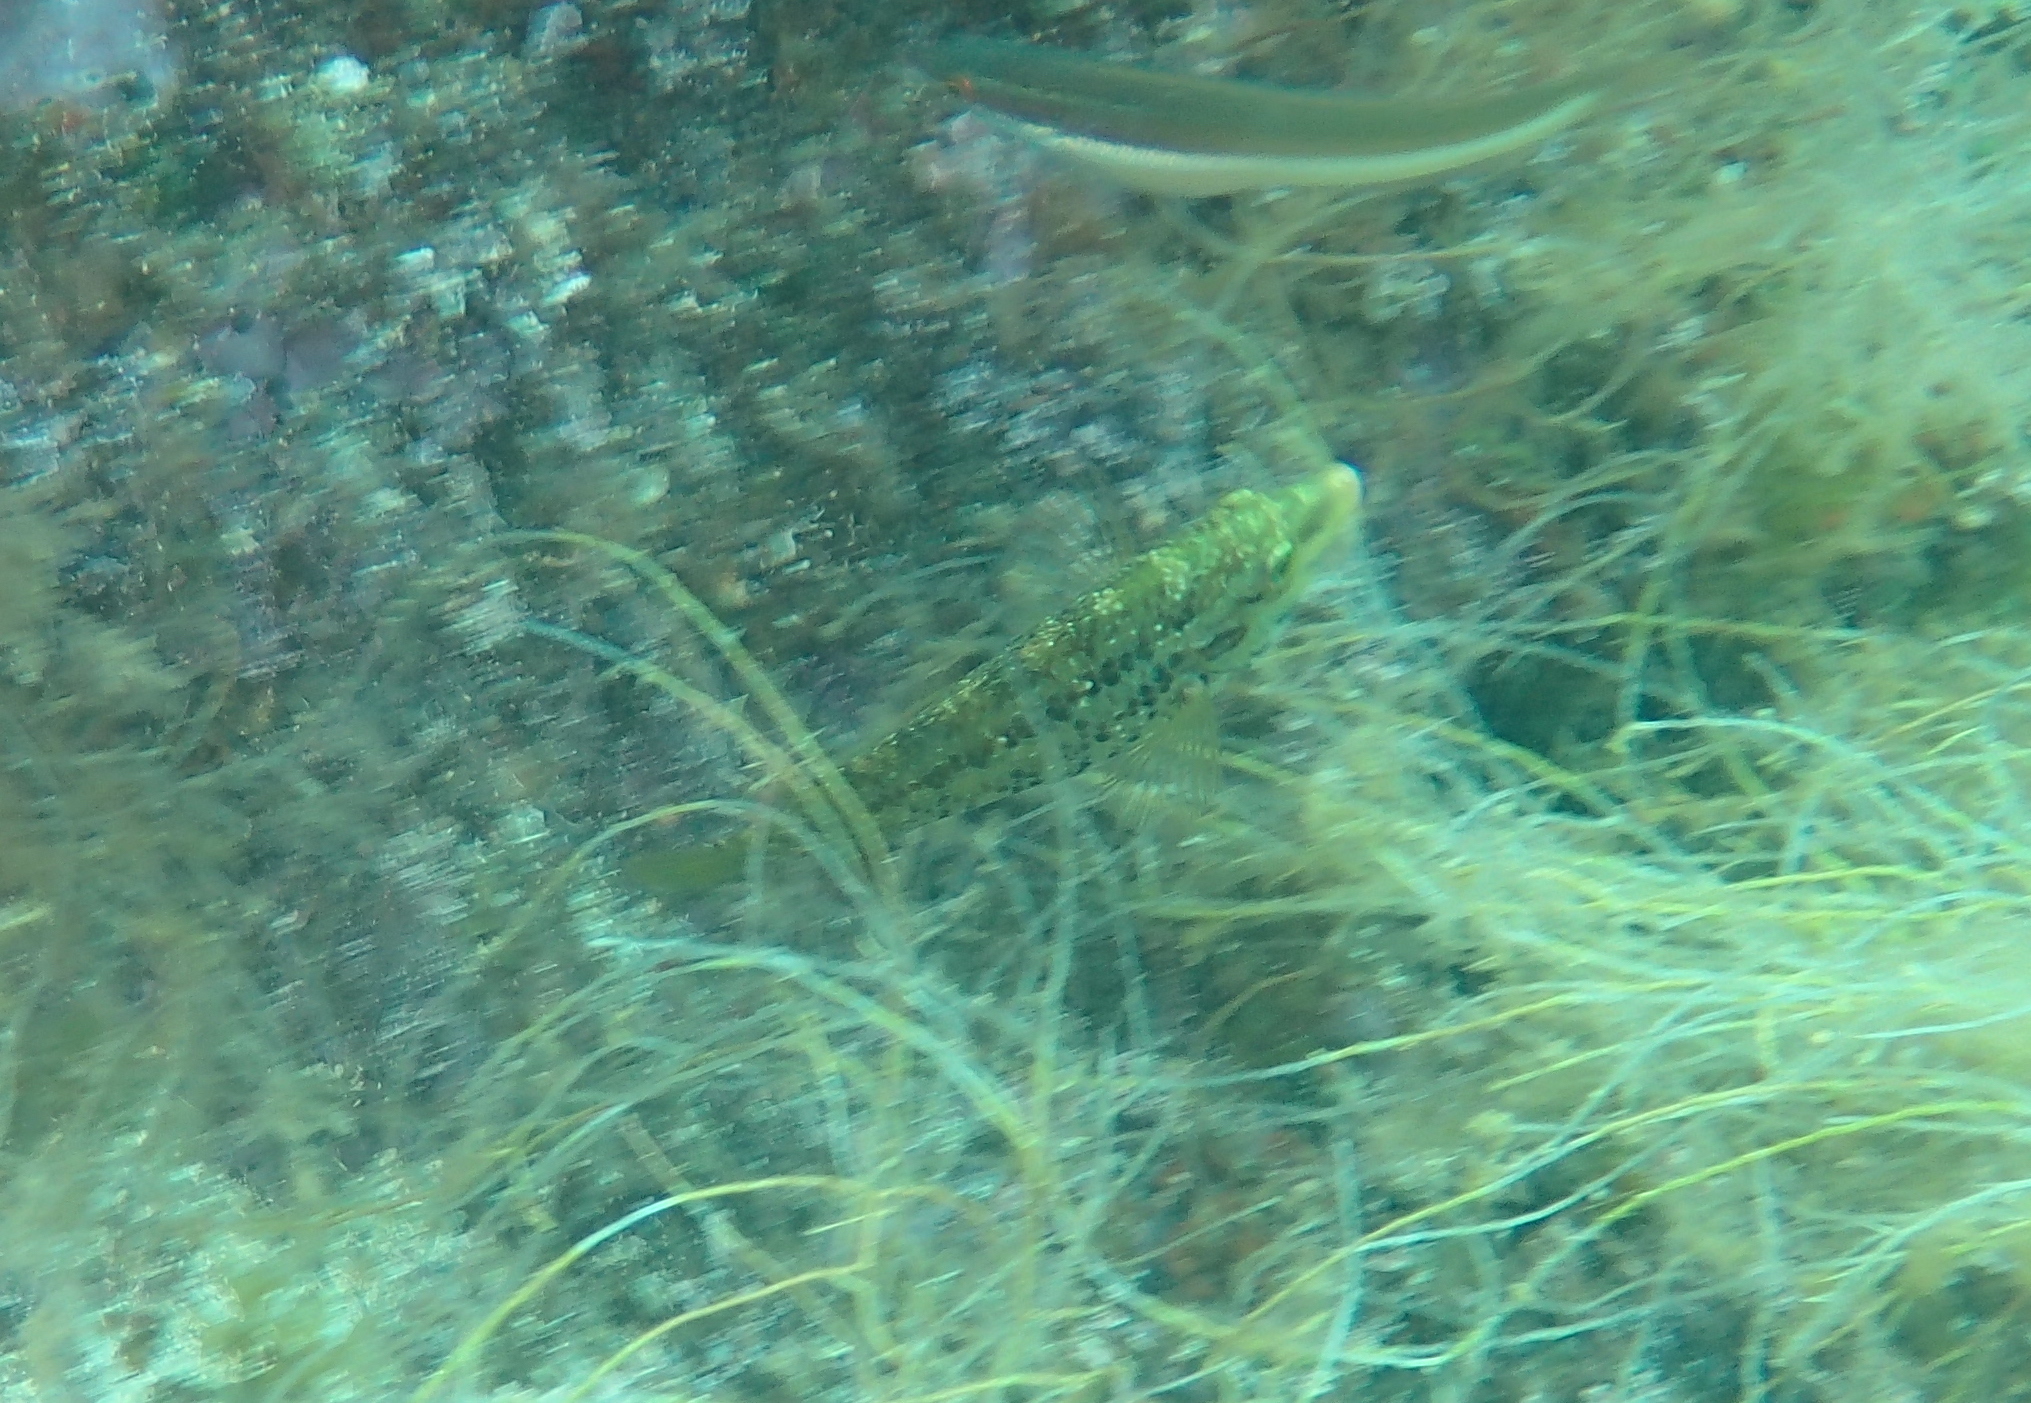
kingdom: Animalia
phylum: Chordata
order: Perciformes
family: Labridae
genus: Symphodus
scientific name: Symphodus roissali
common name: Five-spotted wrasse
